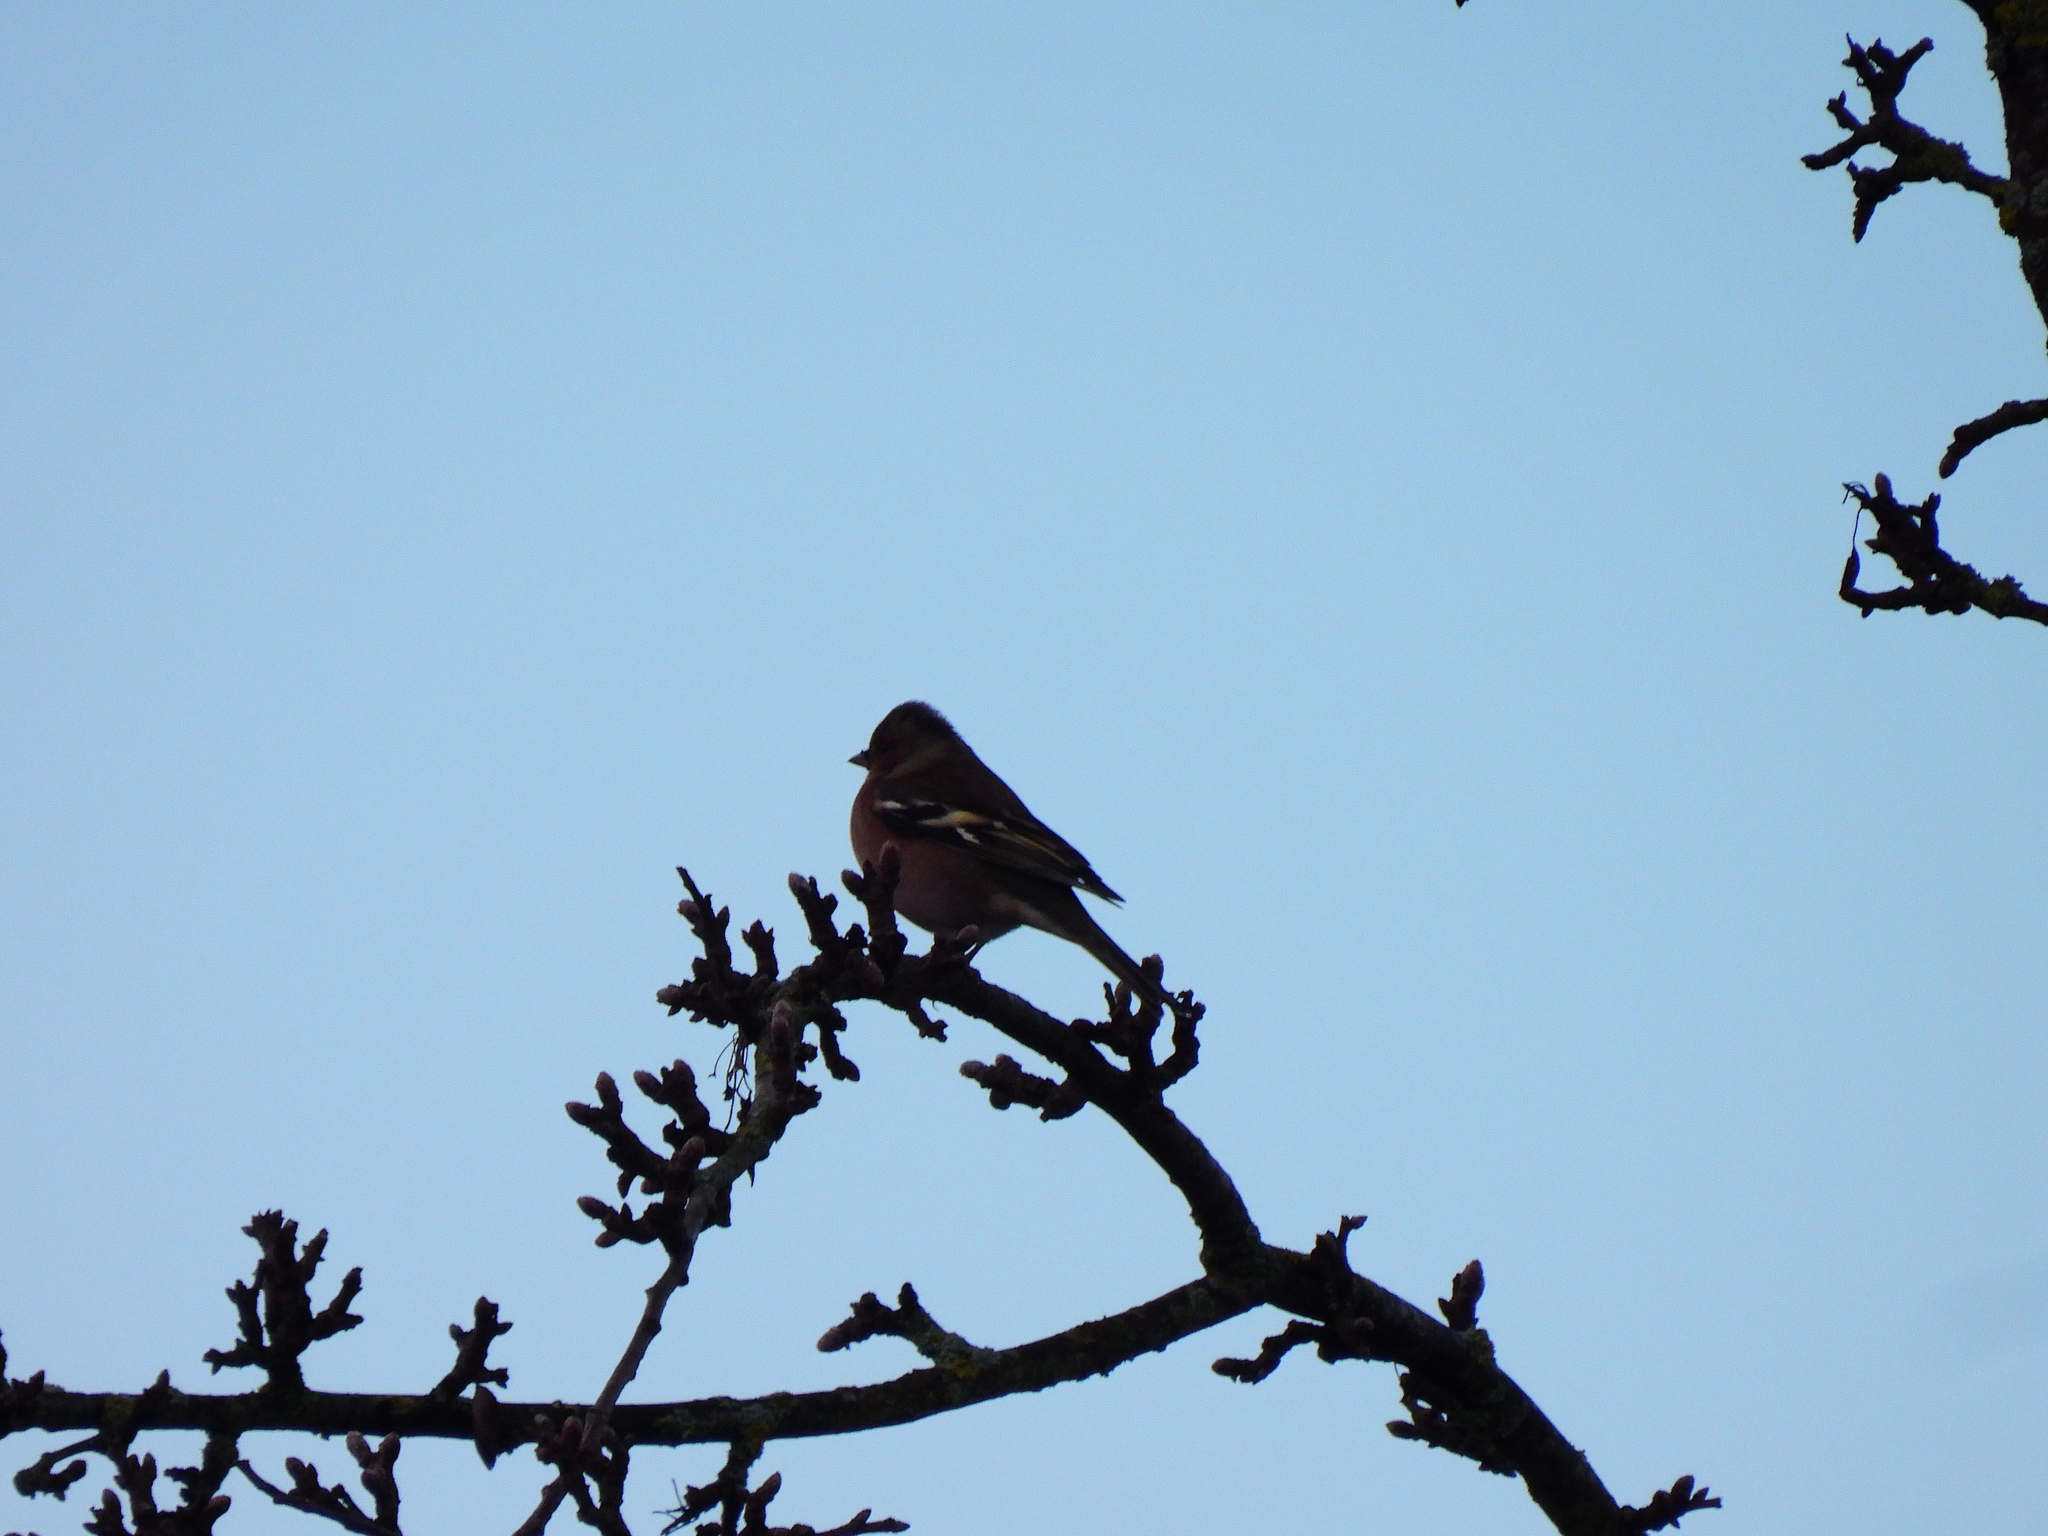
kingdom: Animalia
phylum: Chordata
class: Aves
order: Passeriformes
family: Fringillidae
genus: Fringilla
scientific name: Fringilla coelebs
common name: Common chaffinch
